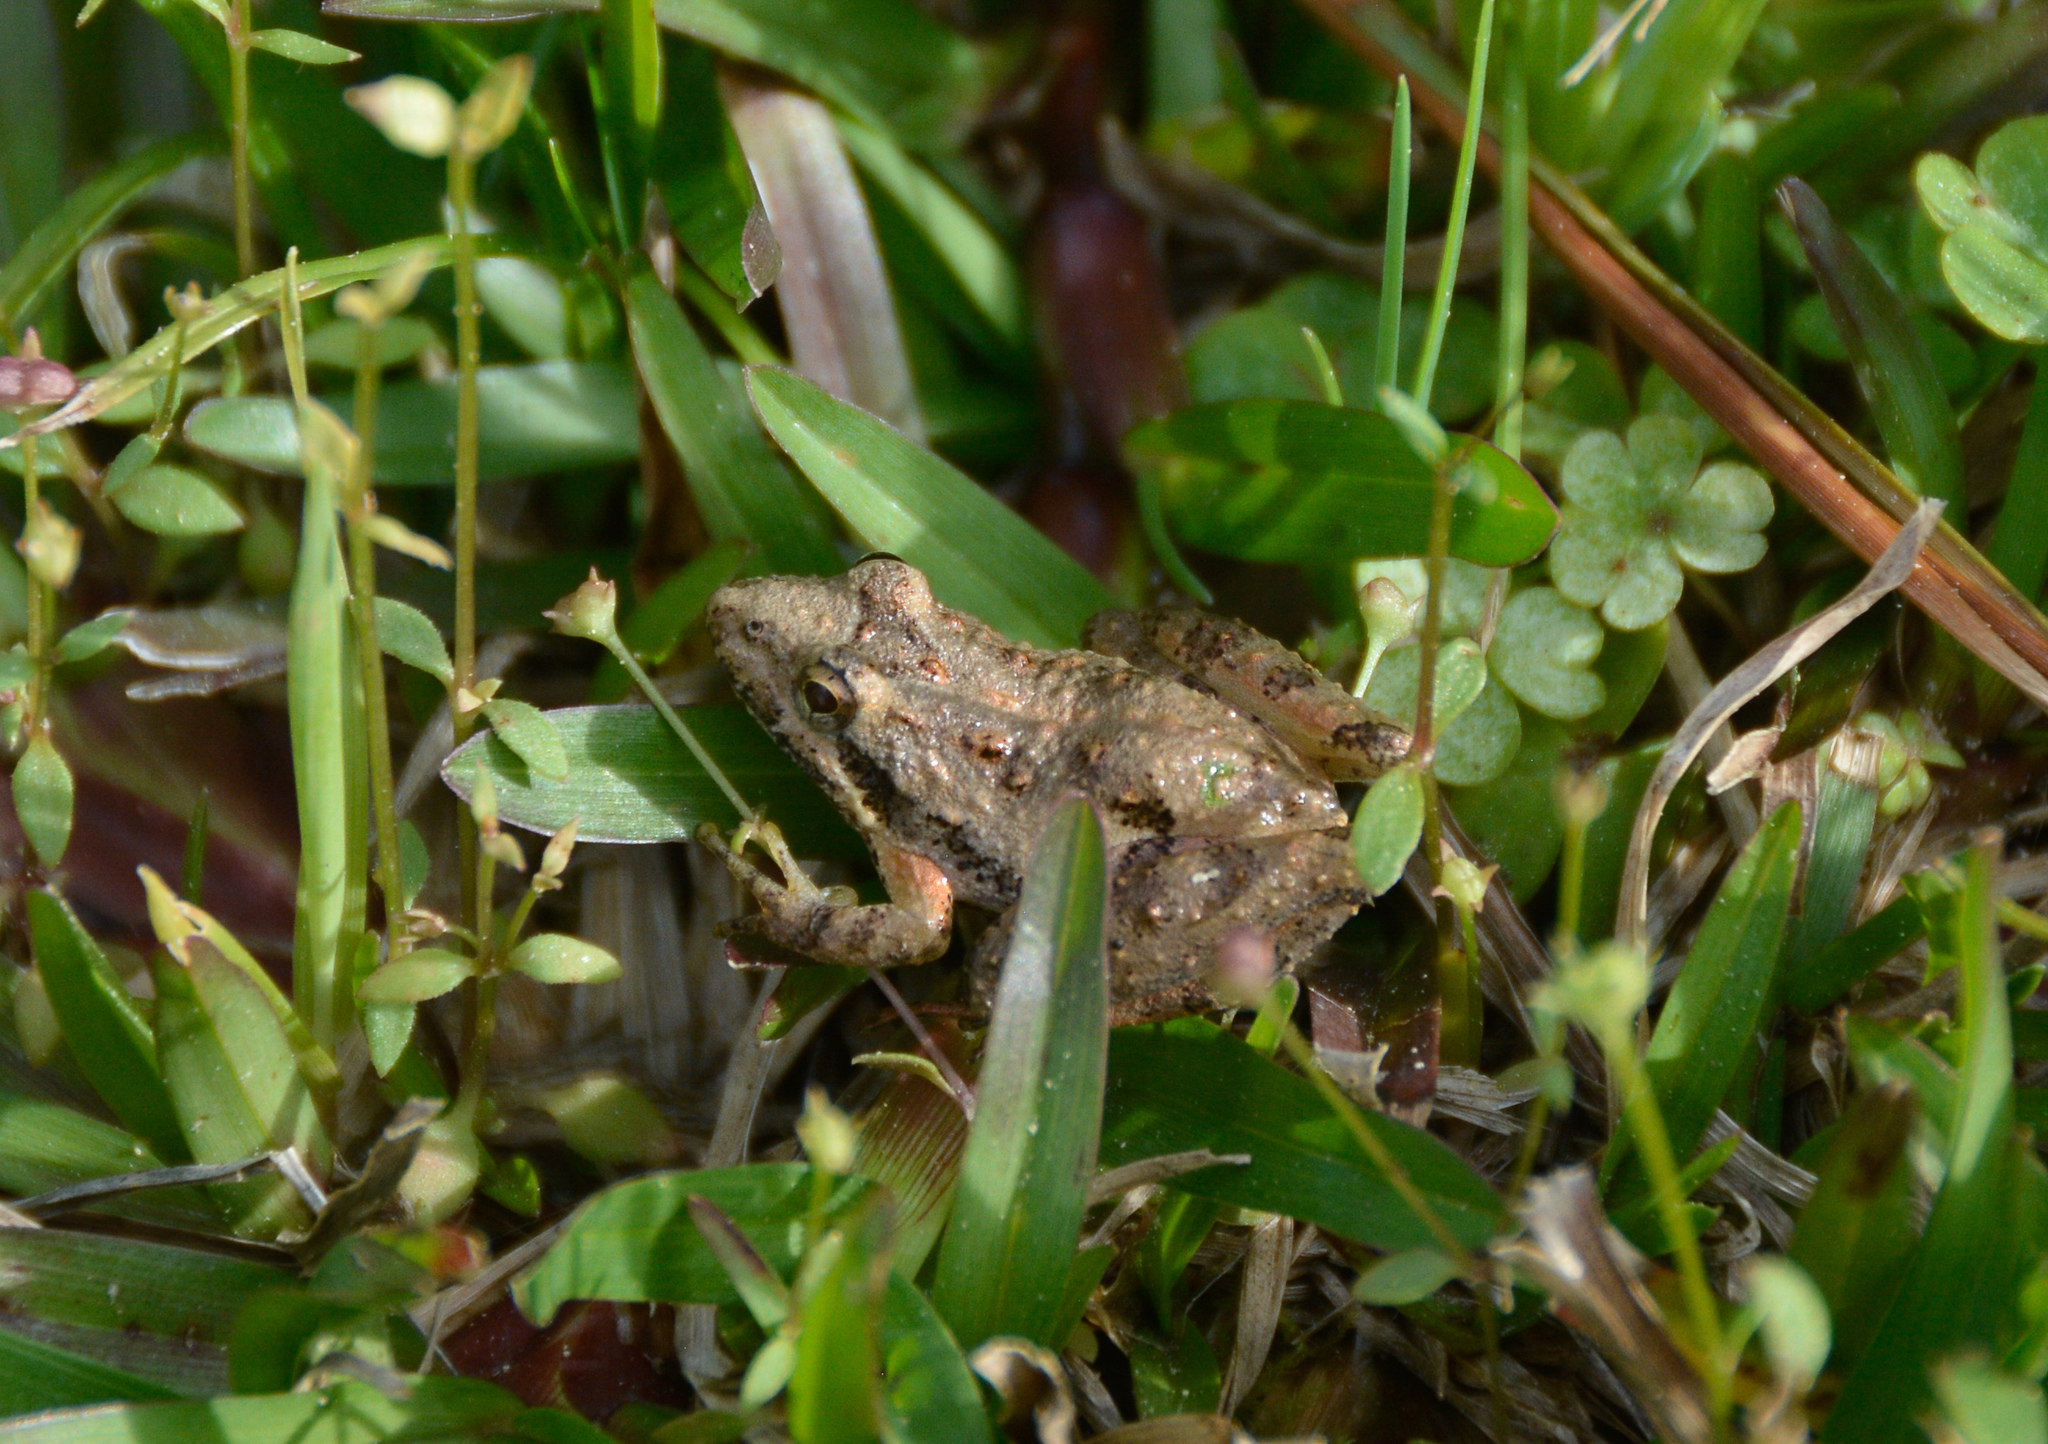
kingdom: Animalia
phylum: Chordata
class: Amphibia
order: Anura
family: Hylidae
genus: Acris
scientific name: Acris gryllus
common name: Southern cricket frog
